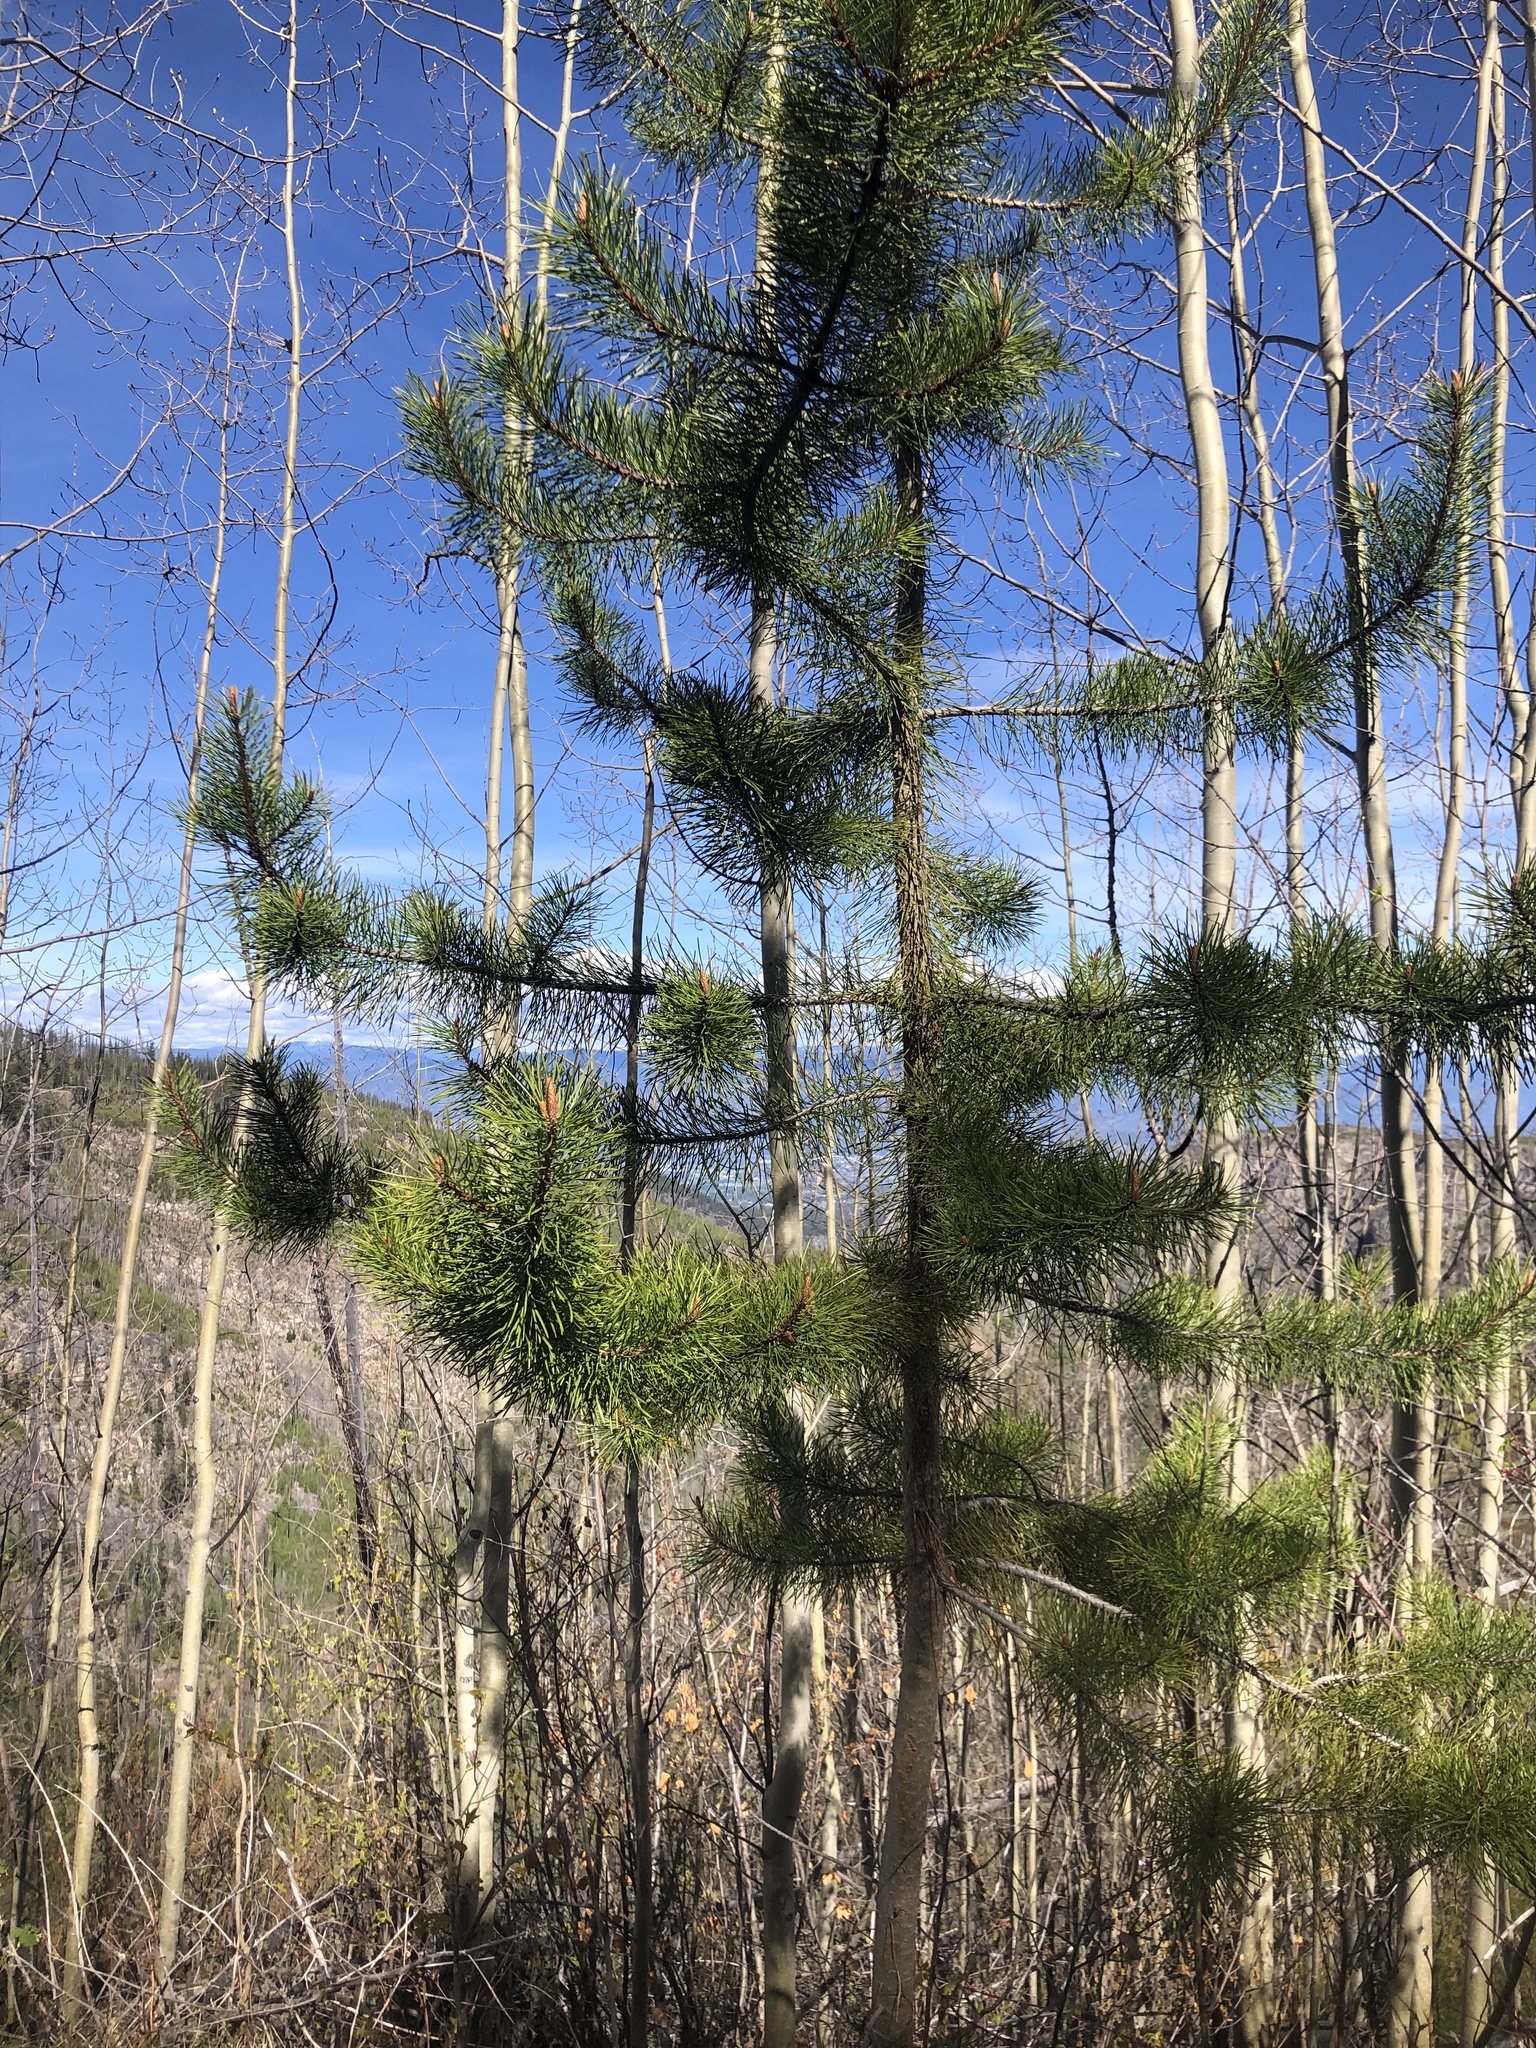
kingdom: Plantae
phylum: Tracheophyta
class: Pinopsida
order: Pinales
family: Pinaceae
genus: Pinus
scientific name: Pinus contorta
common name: Lodgepole pine
